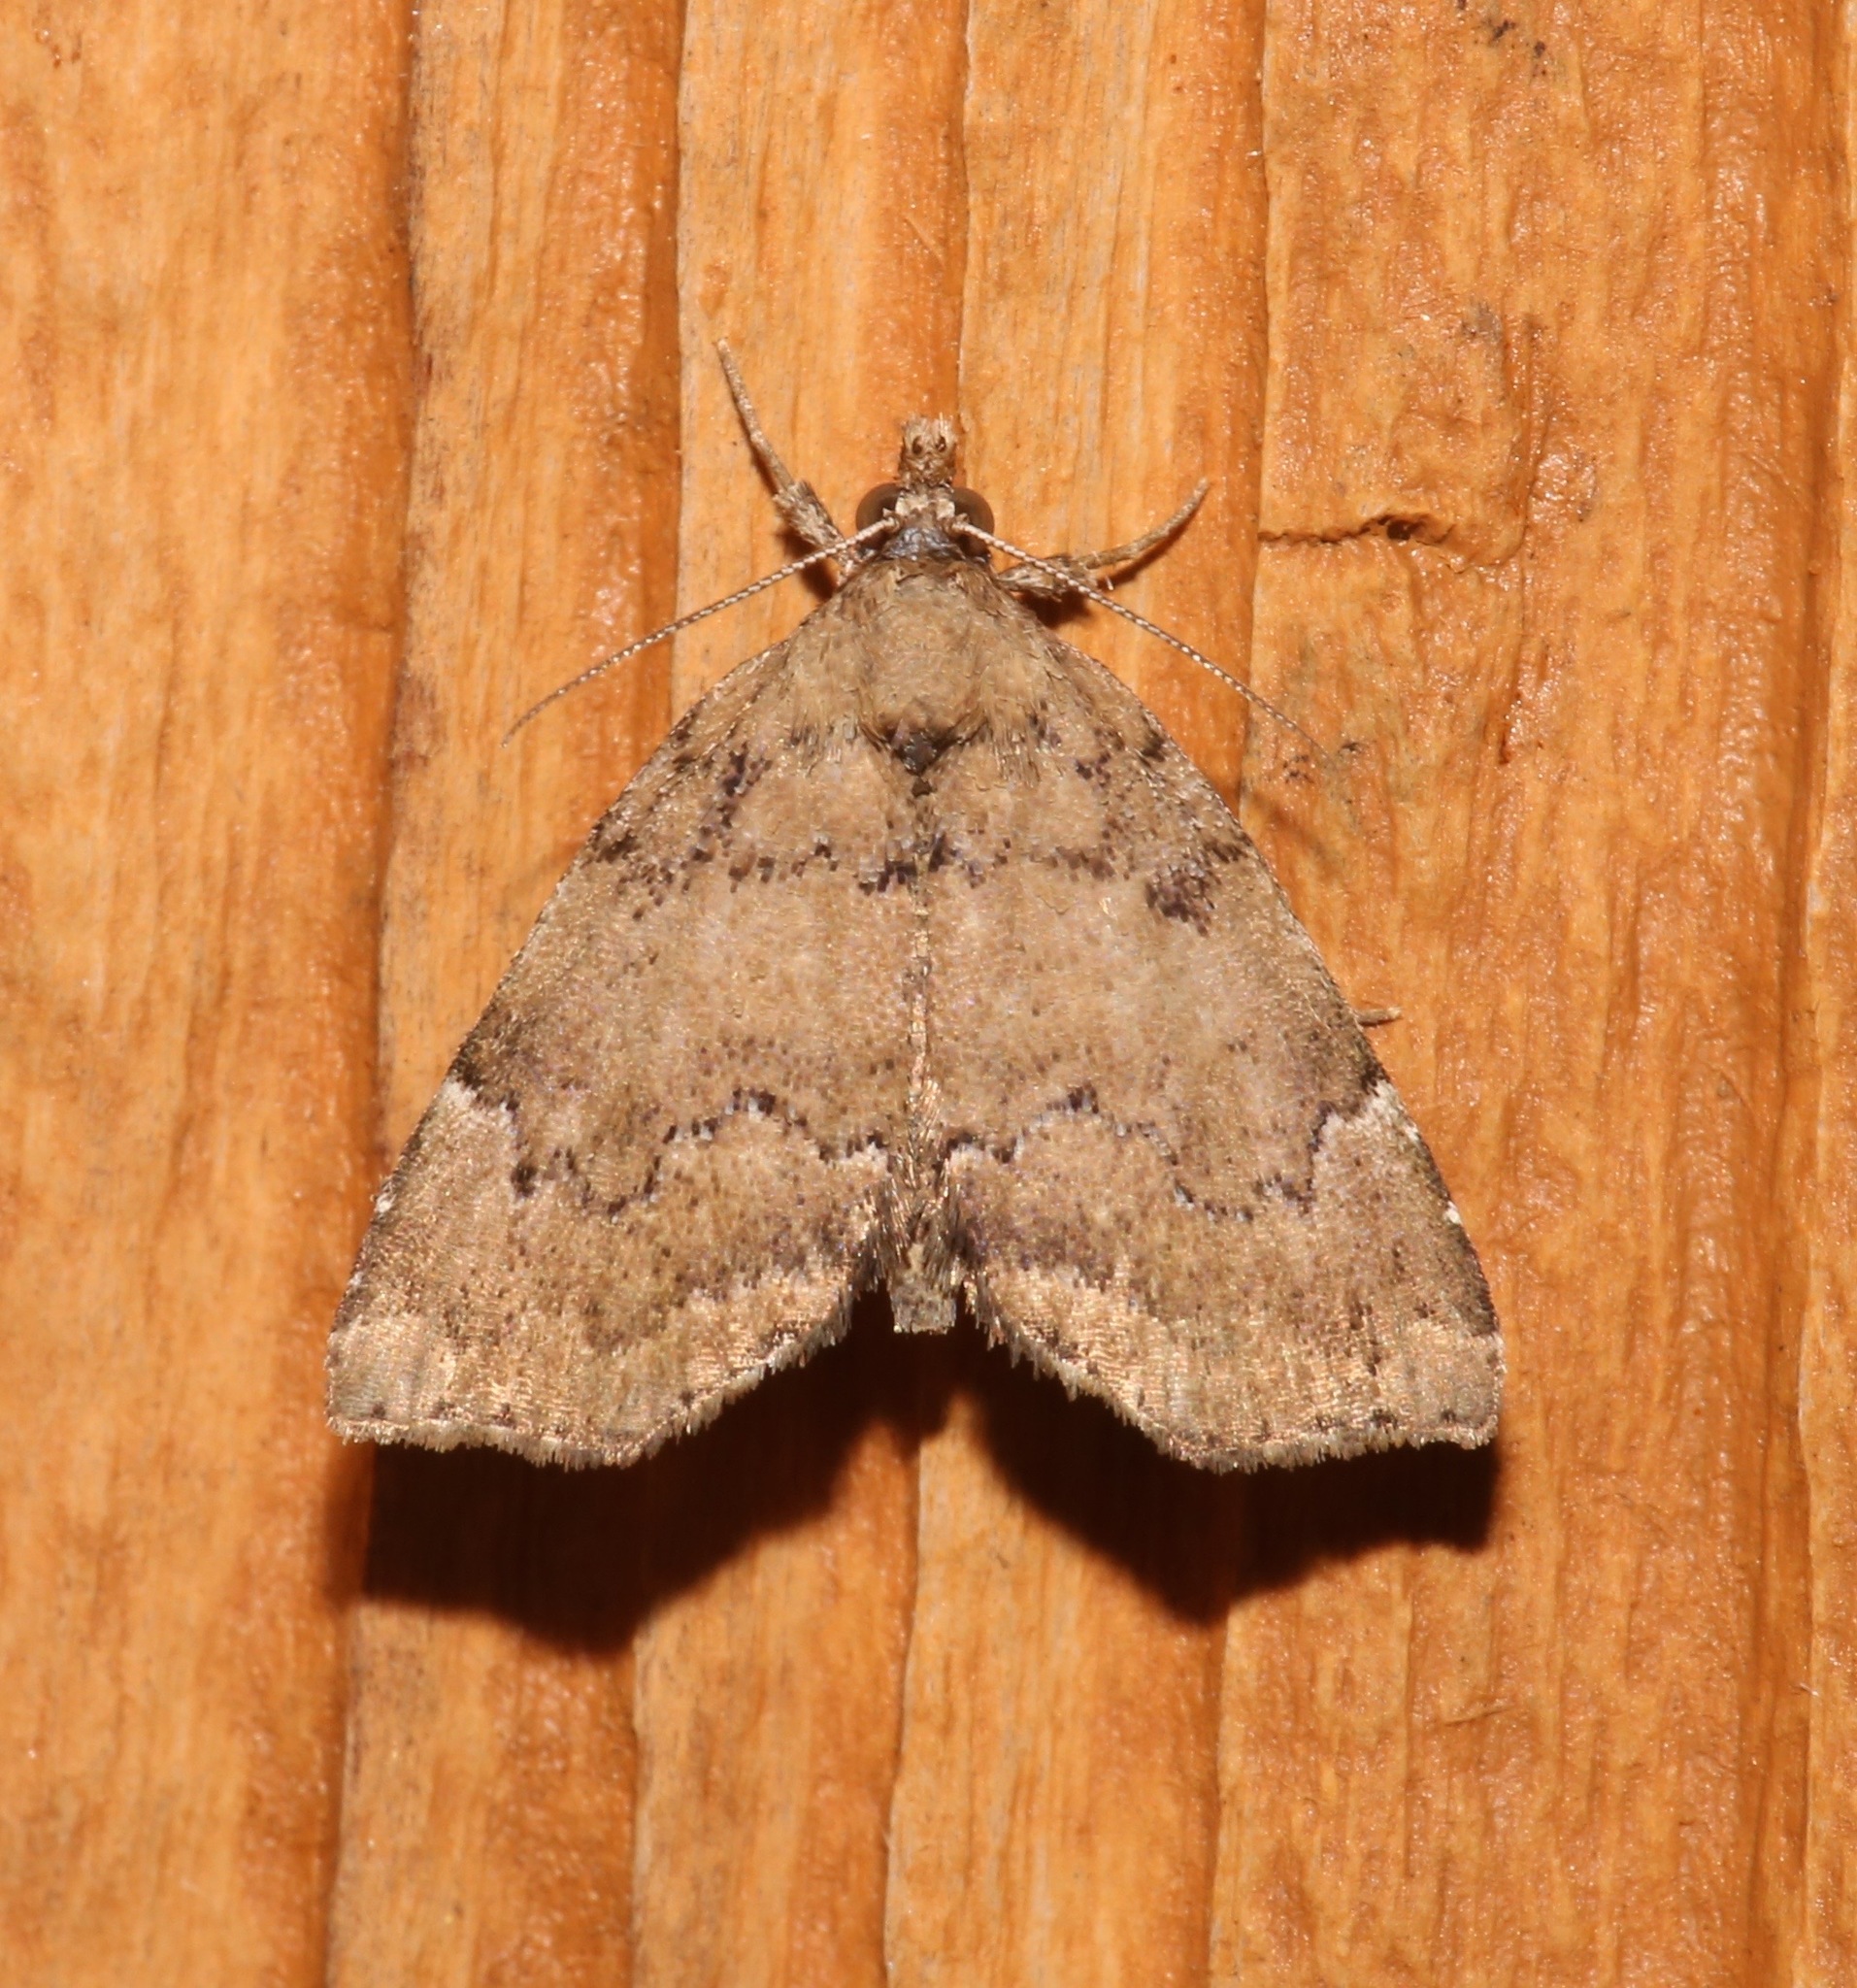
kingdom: Animalia
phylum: Arthropoda
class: Insecta
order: Lepidoptera
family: Erebidae
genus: Cutina
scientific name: Cutina aluticolor
